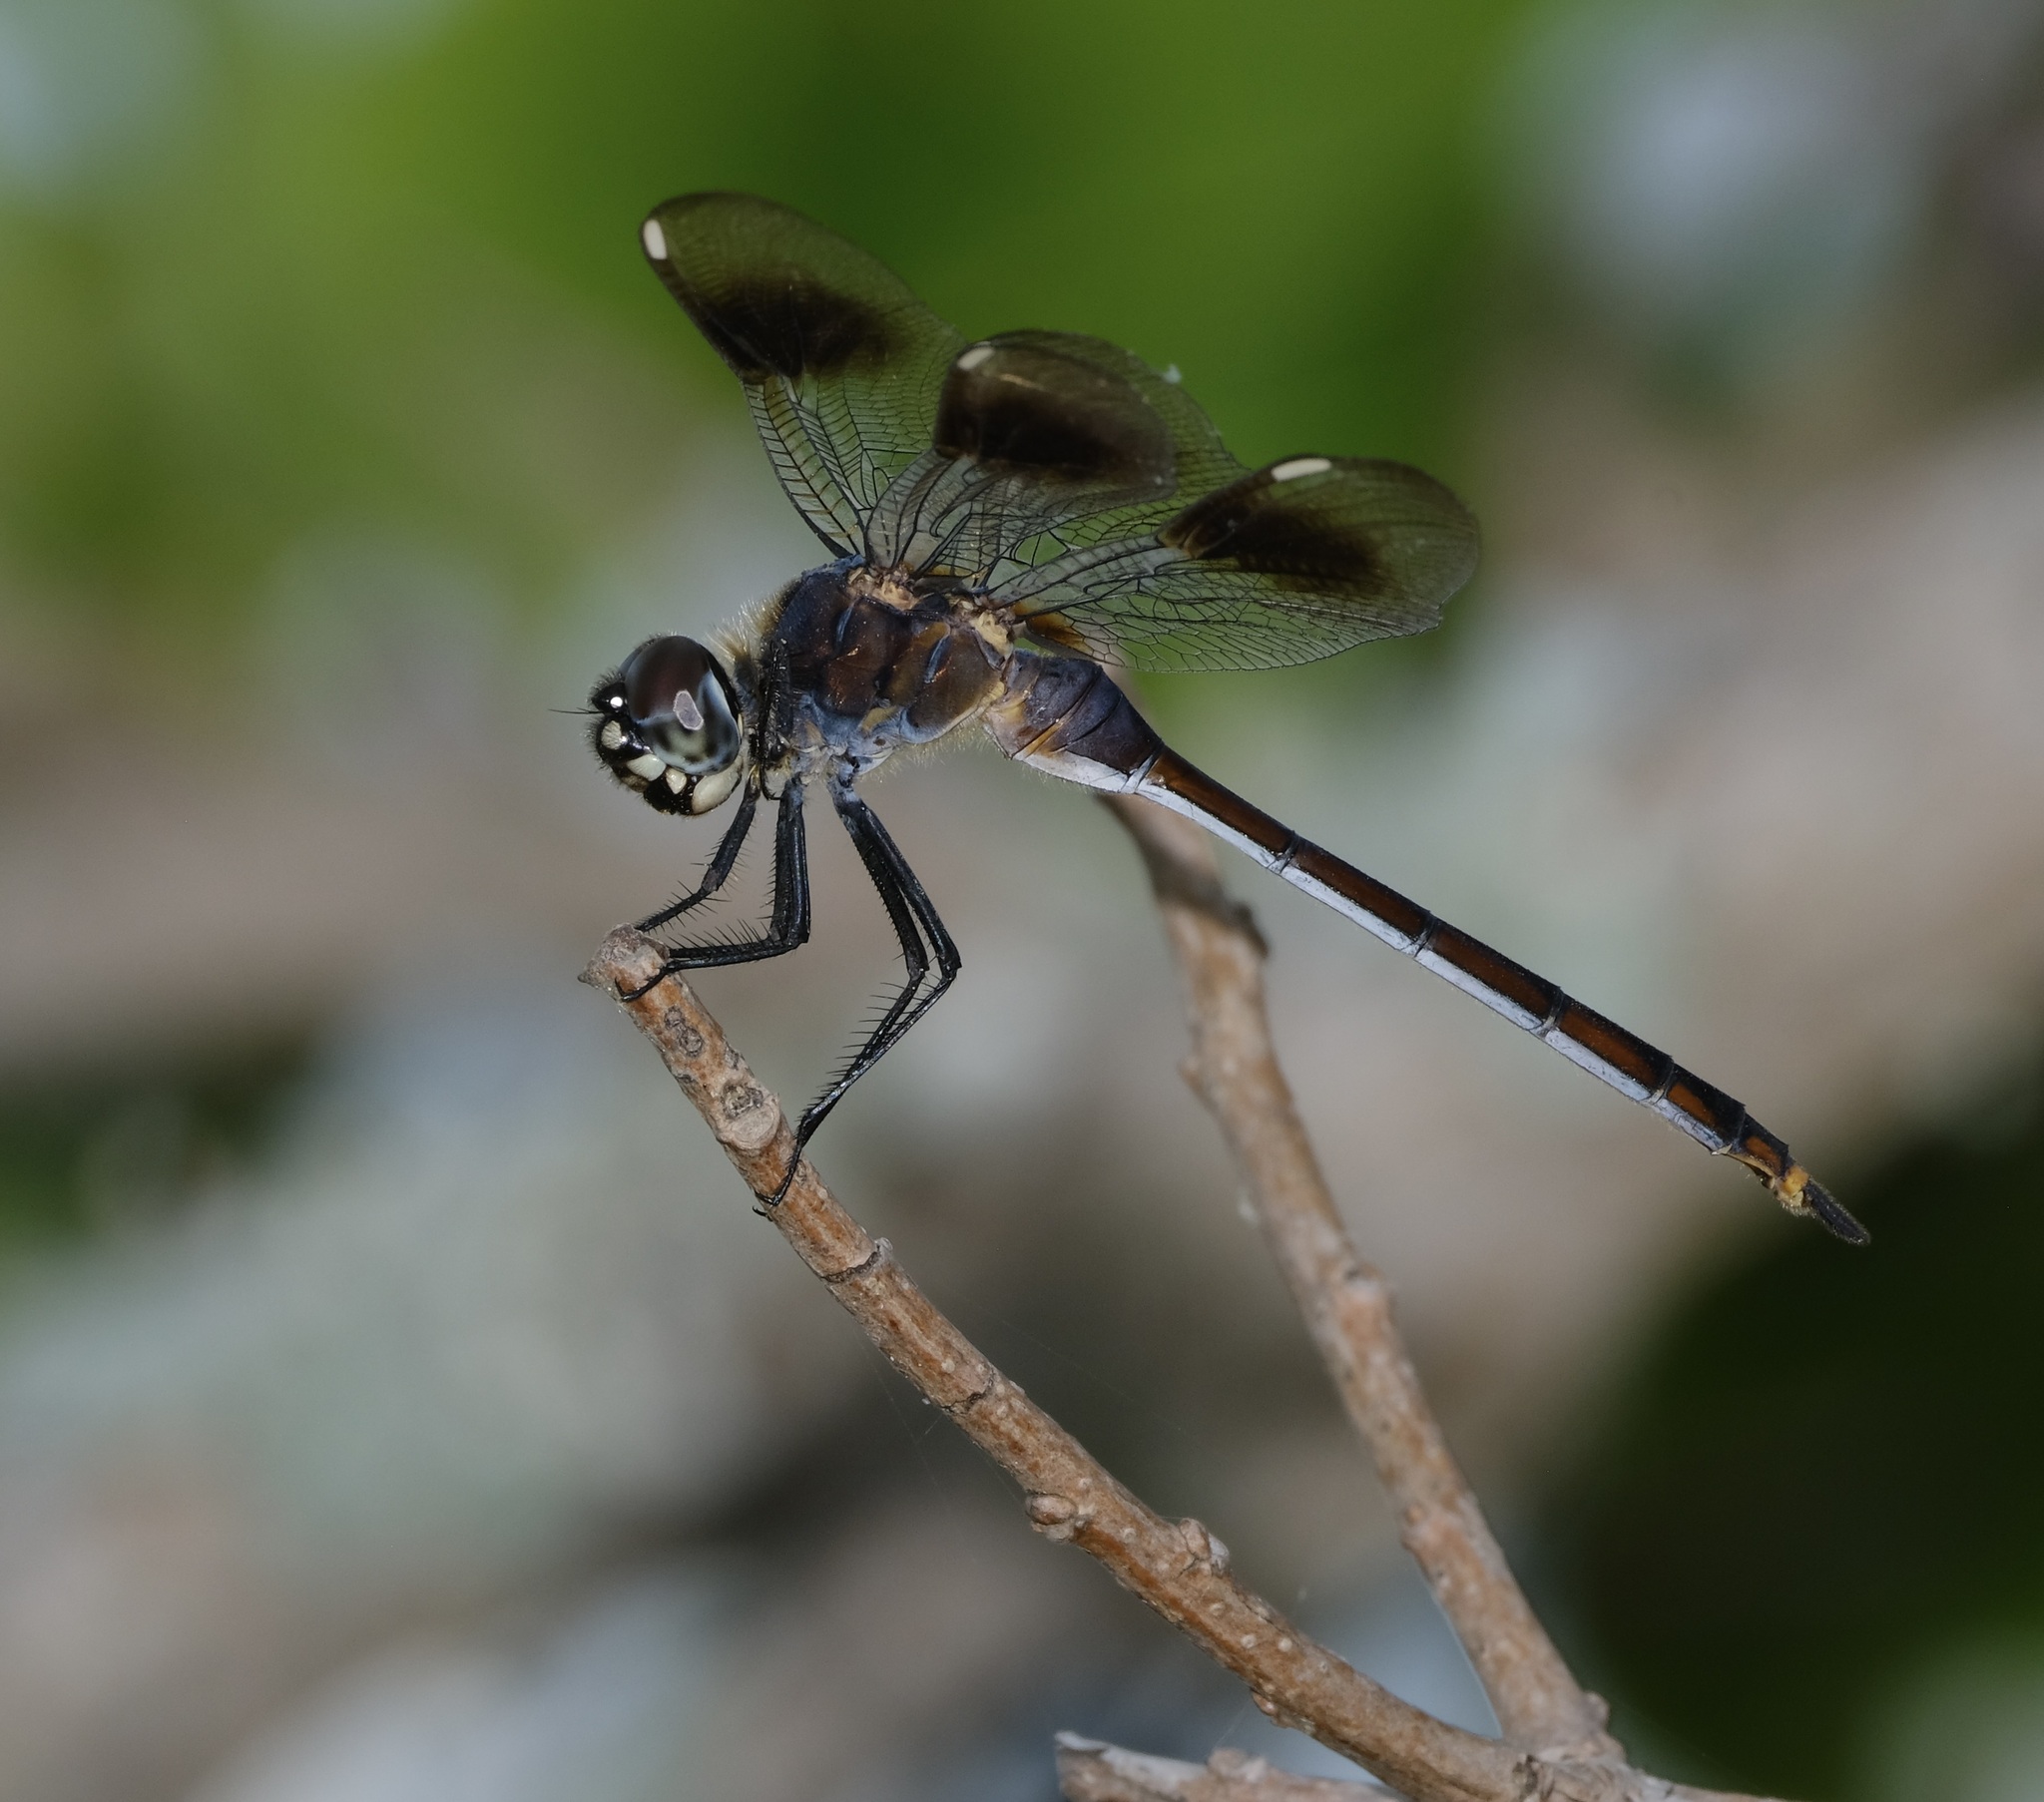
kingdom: Animalia
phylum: Arthropoda
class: Insecta
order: Odonata
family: Libellulidae
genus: Brachymesia
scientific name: Brachymesia gravida
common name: Four-spotted pennant
